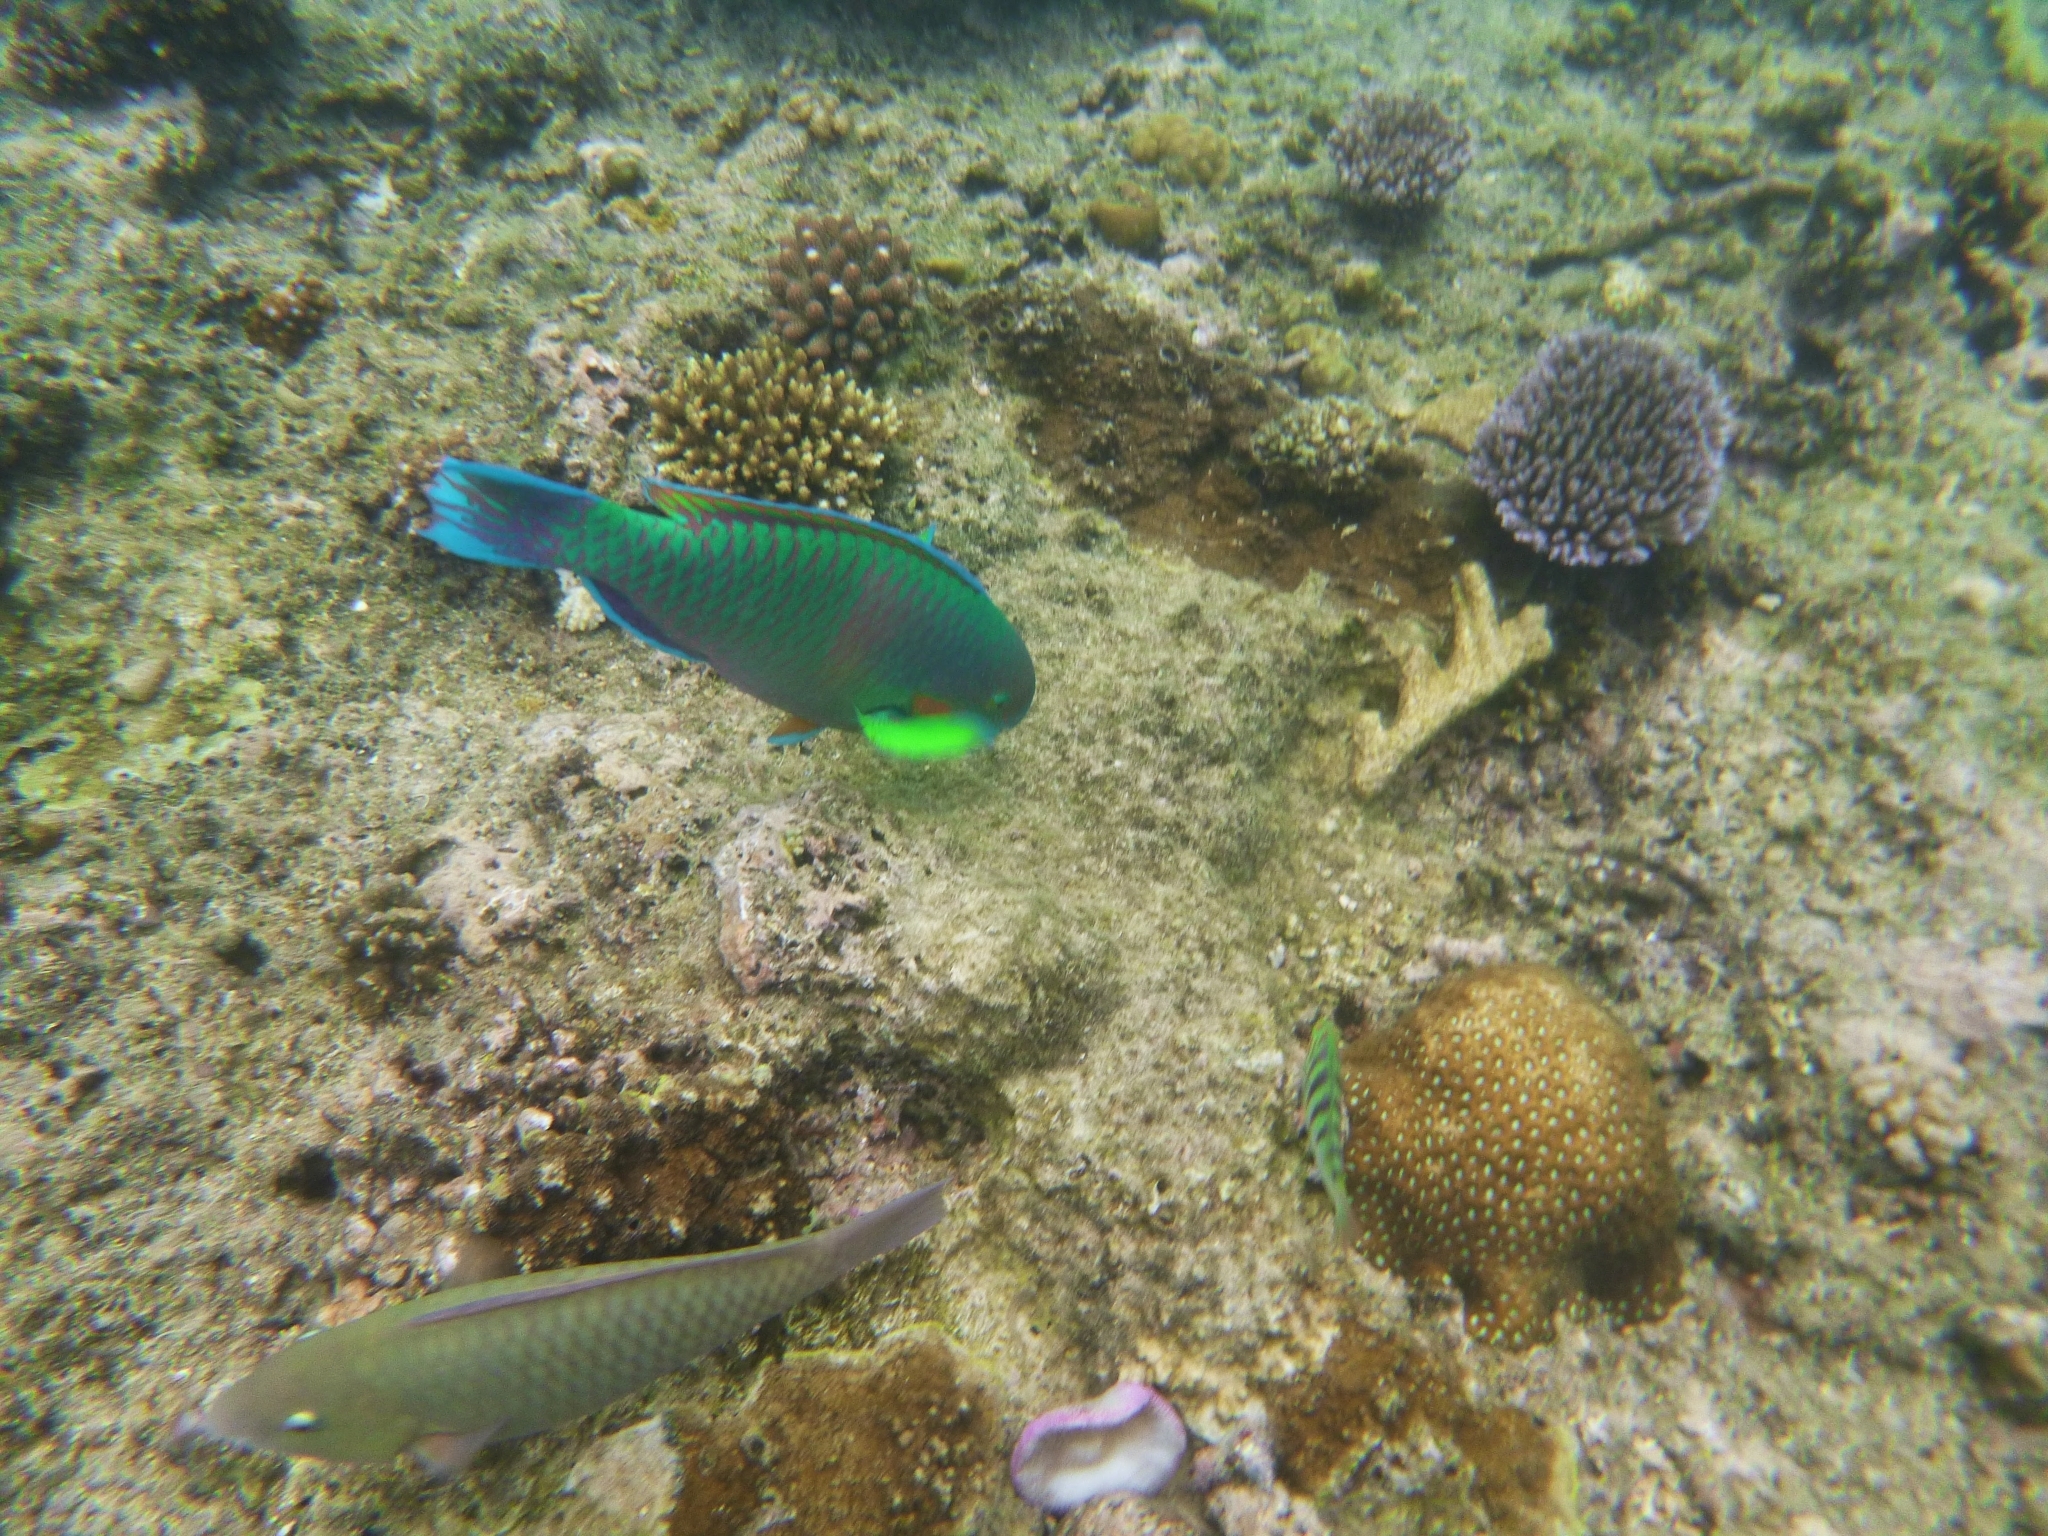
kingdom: Animalia
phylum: Chordata
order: Perciformes
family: Scaridae
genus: Scarus
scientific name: Scarus rivulatus
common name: Surf parrotfish
